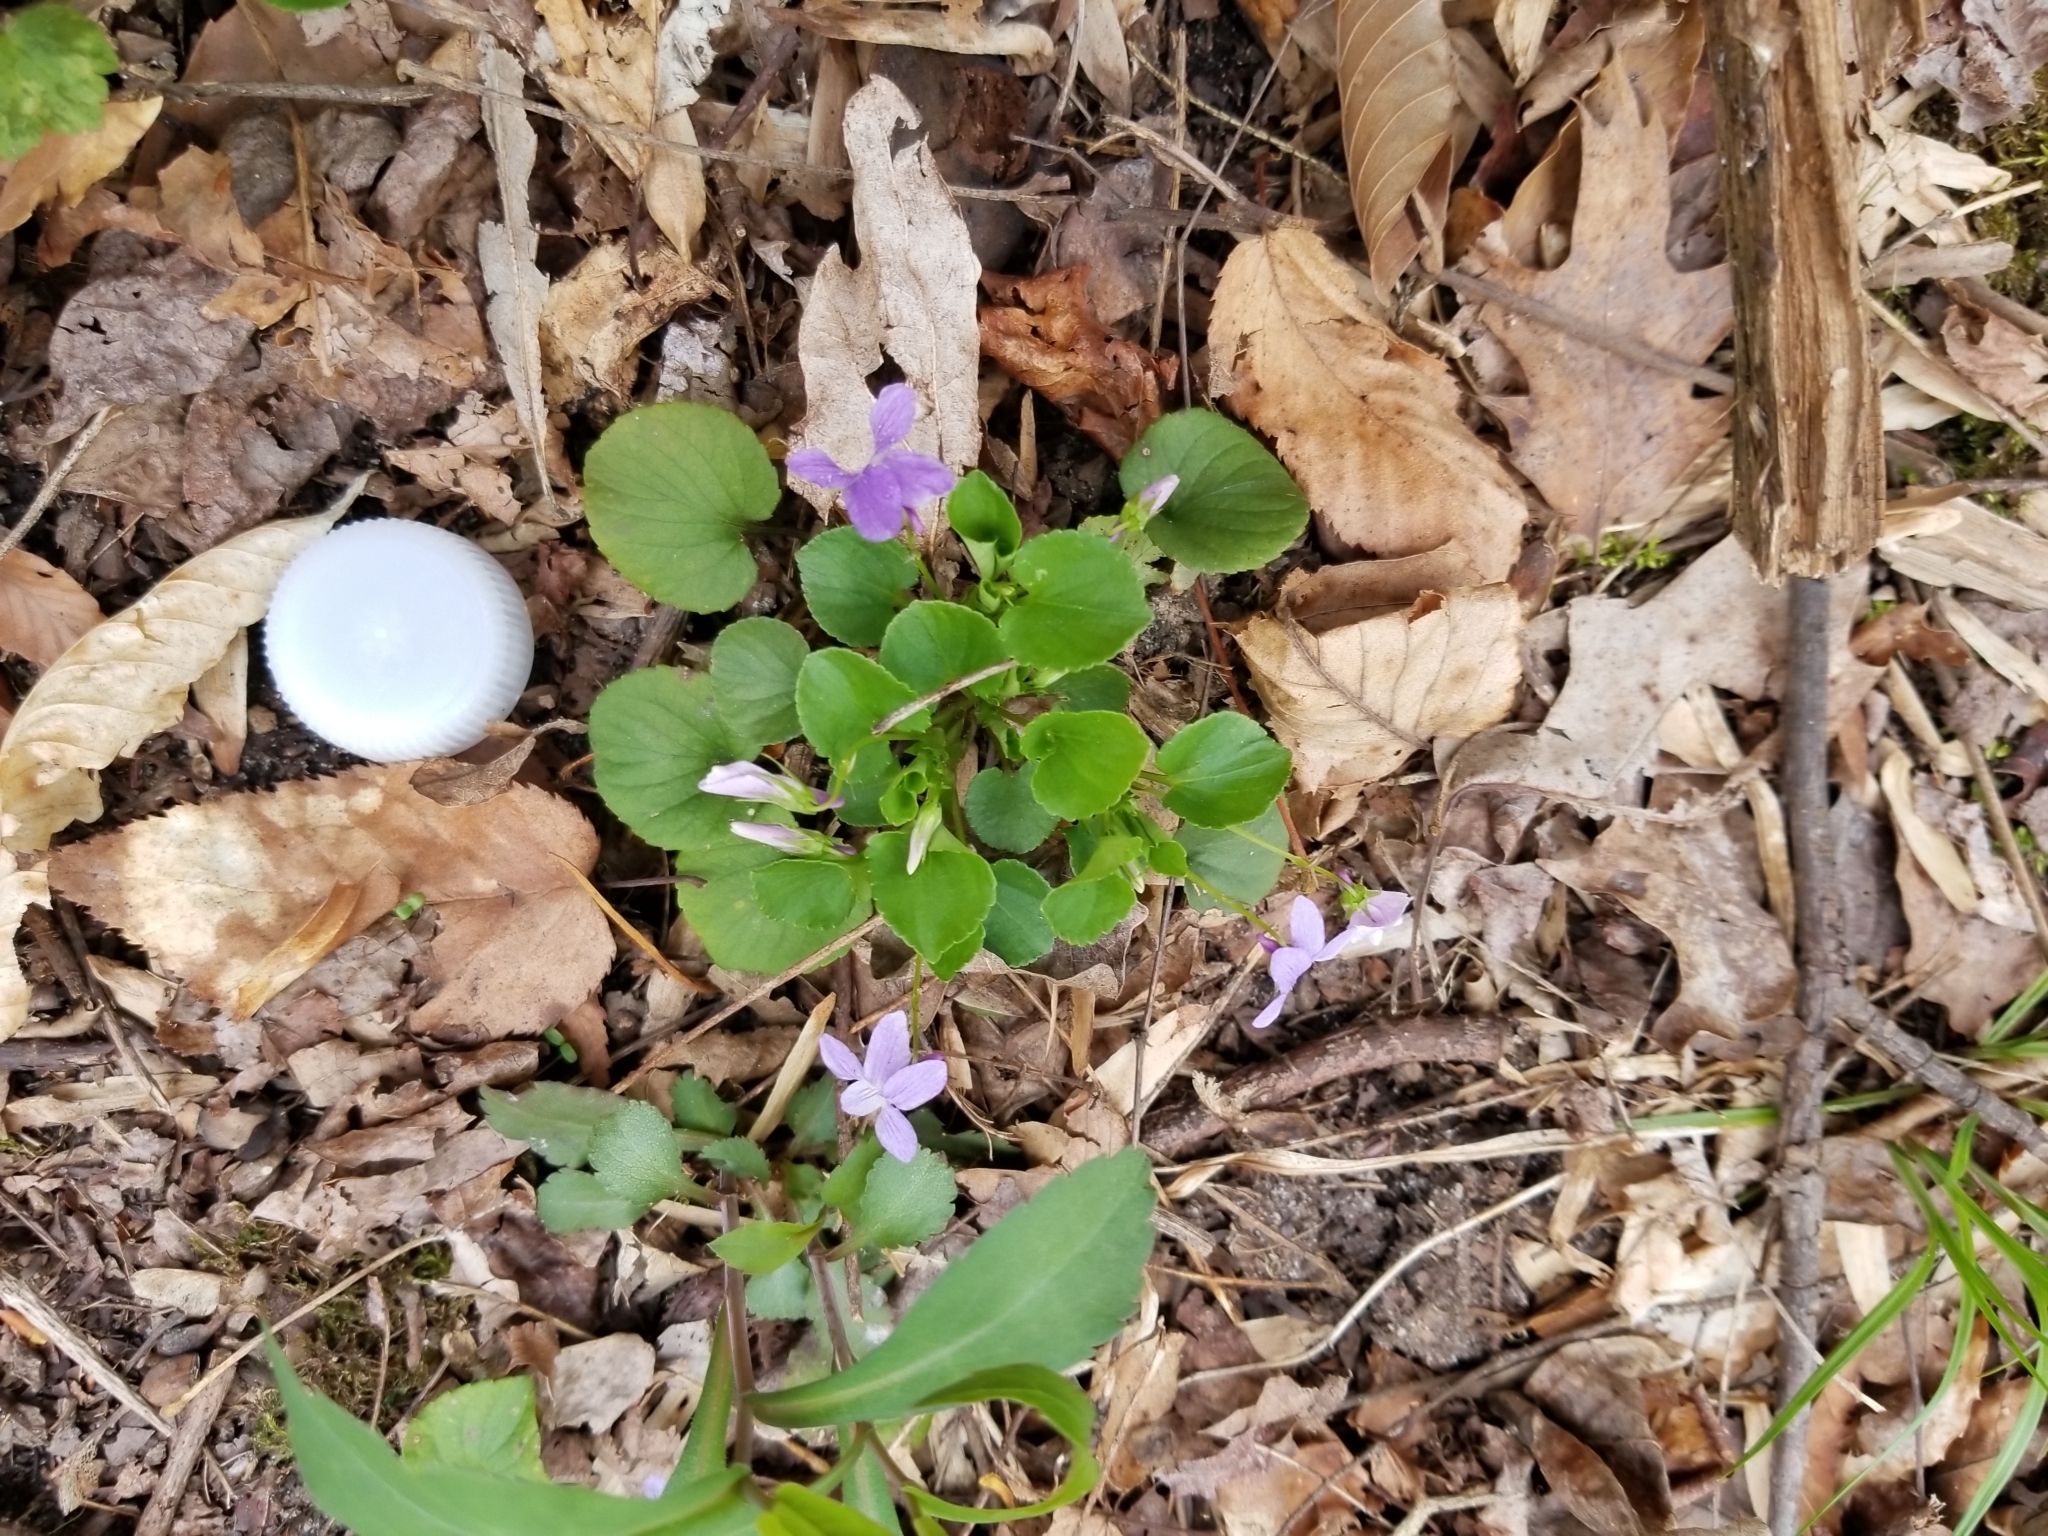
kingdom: Plantae
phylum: Tracheophyta
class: Magnoliopsida
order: Malpighiales
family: Violaceae
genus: Viola
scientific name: Viola labradorica
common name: Labrador violet
